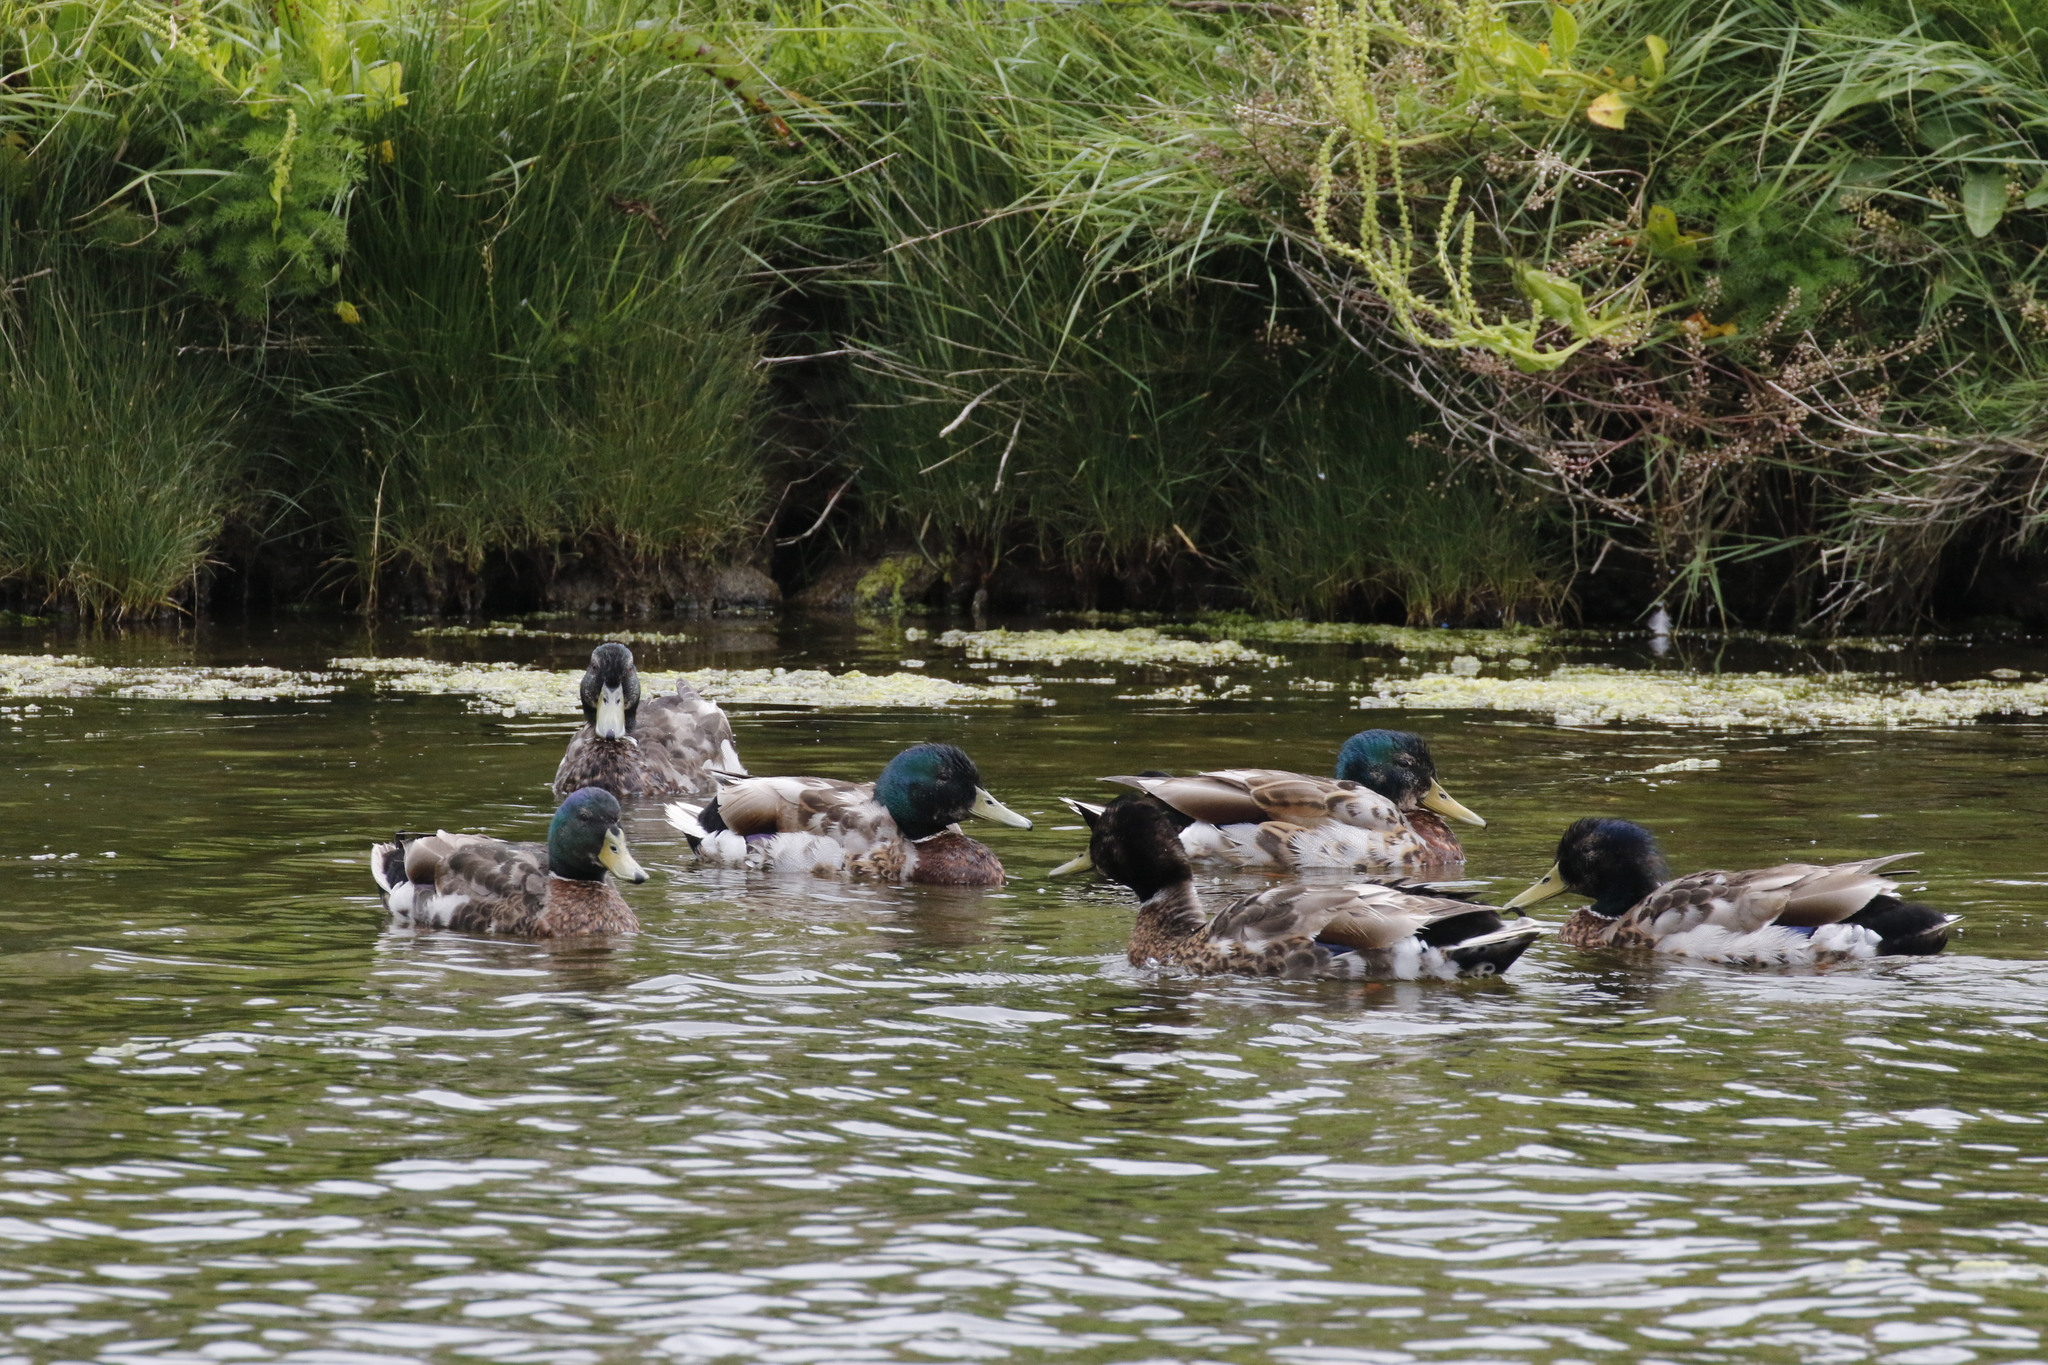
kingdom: Animalia
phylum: Chordata
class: Aves
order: Anseriformes
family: Anatidae
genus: Anas
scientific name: Anas platyrhynchos
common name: Mallard
